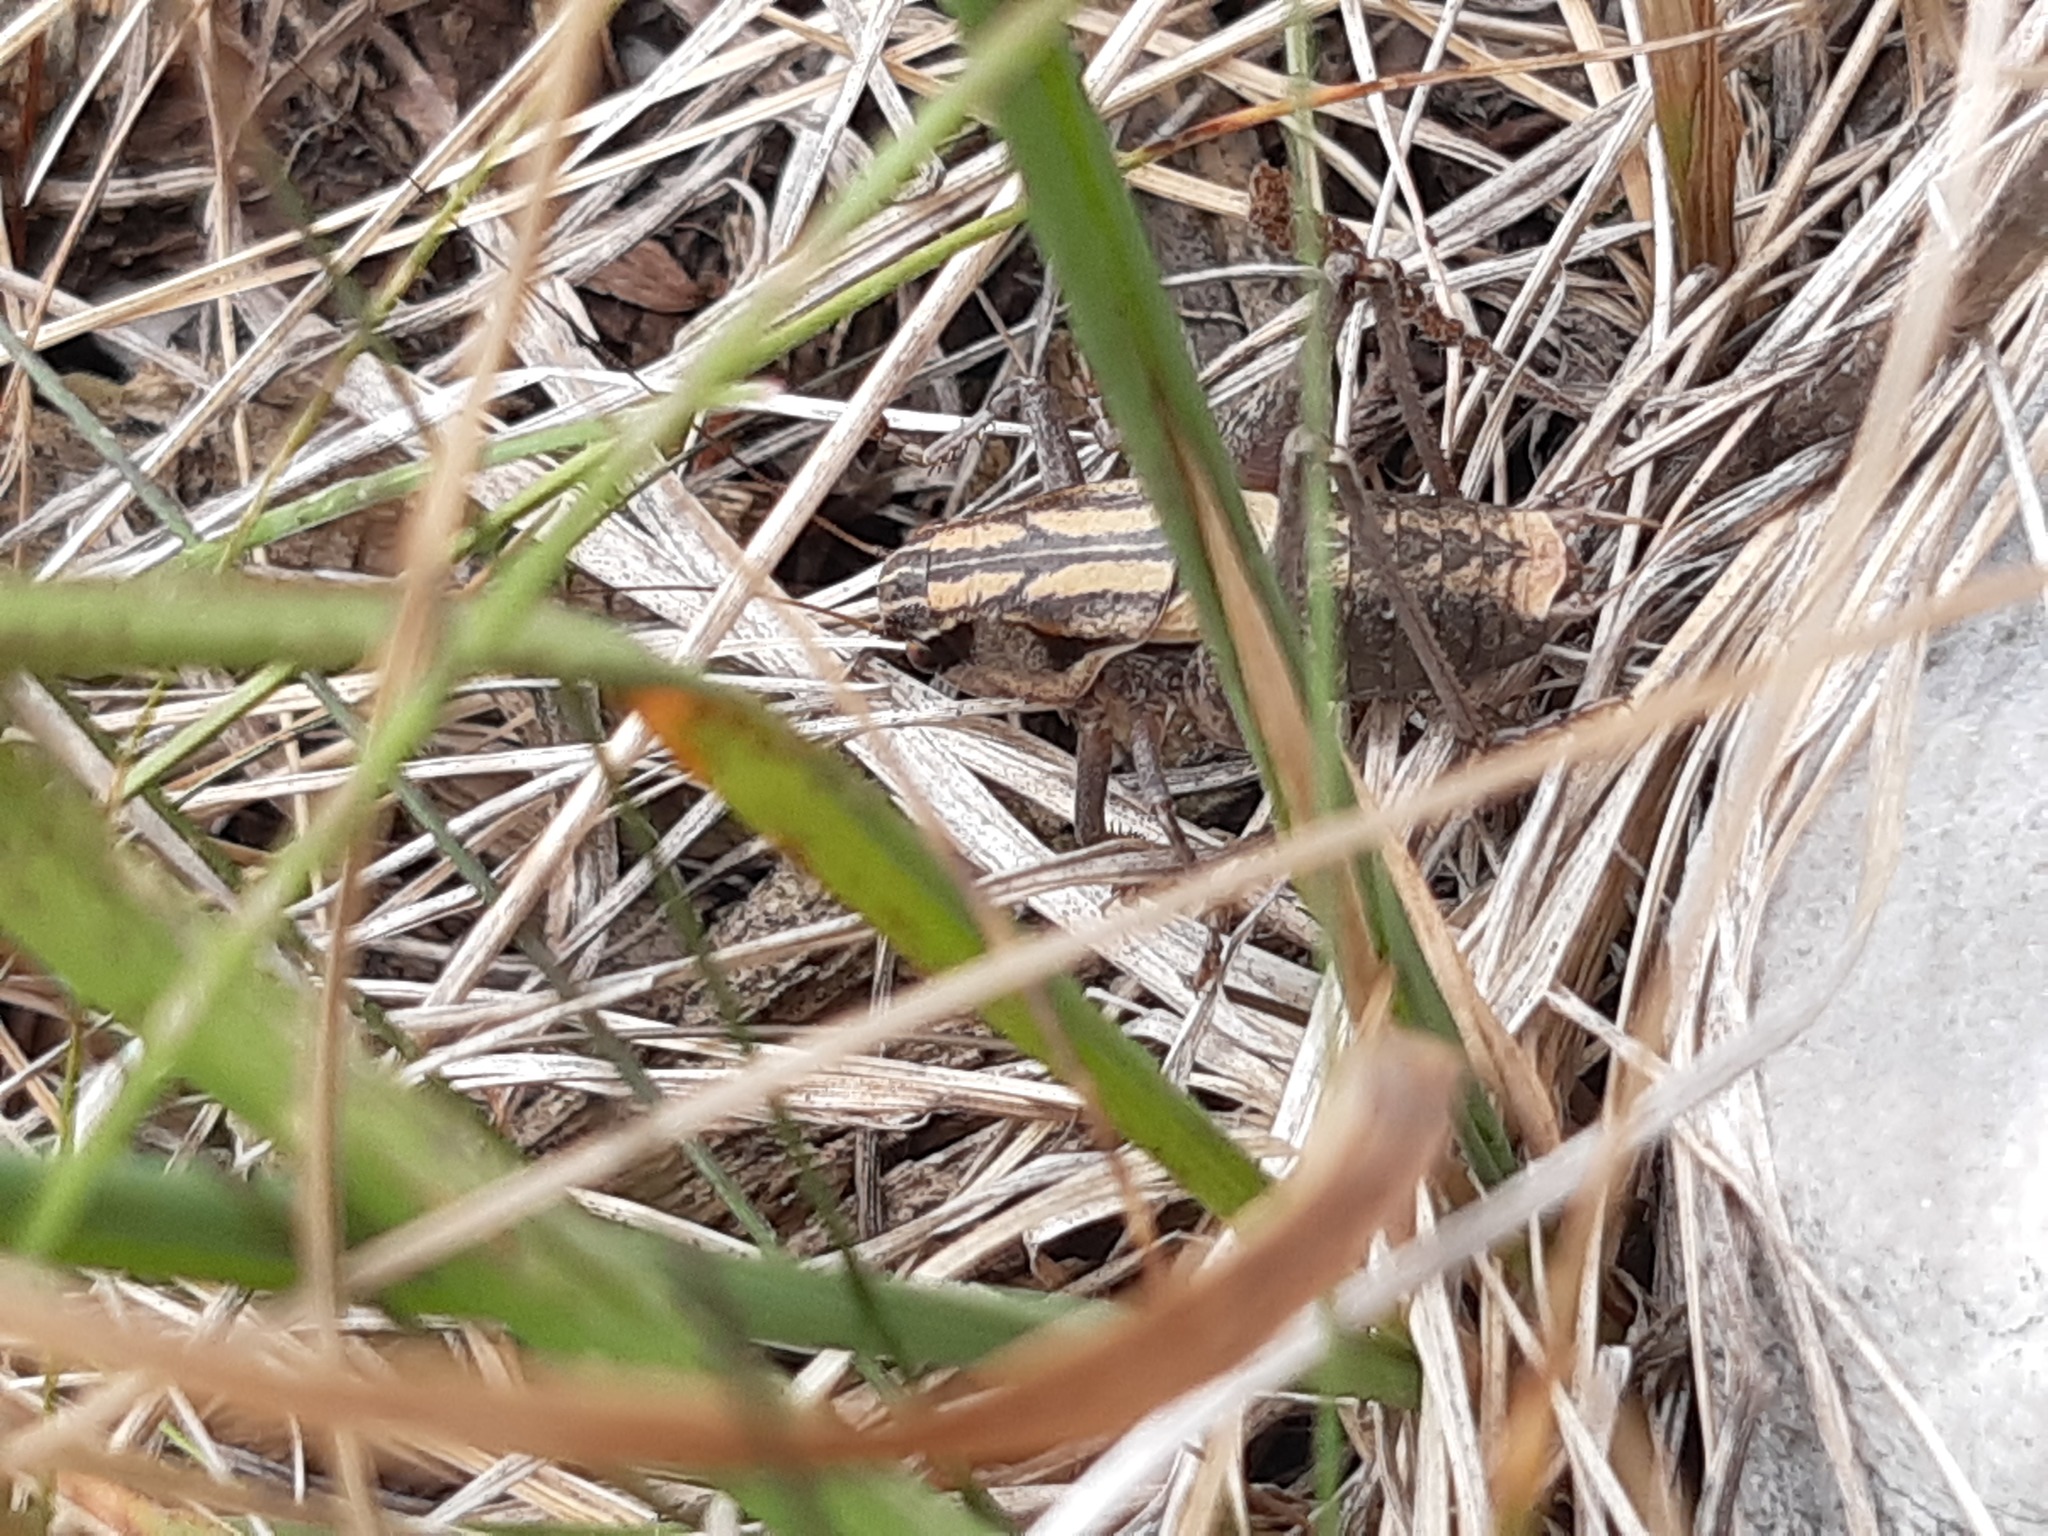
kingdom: Animalia
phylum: Arthropoda
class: Insecta
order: Orthoptera
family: Tettigoniidae
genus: Pholidoptera
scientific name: Pholidoptera dalmatica
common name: Dalmatian dark bush-cricket
